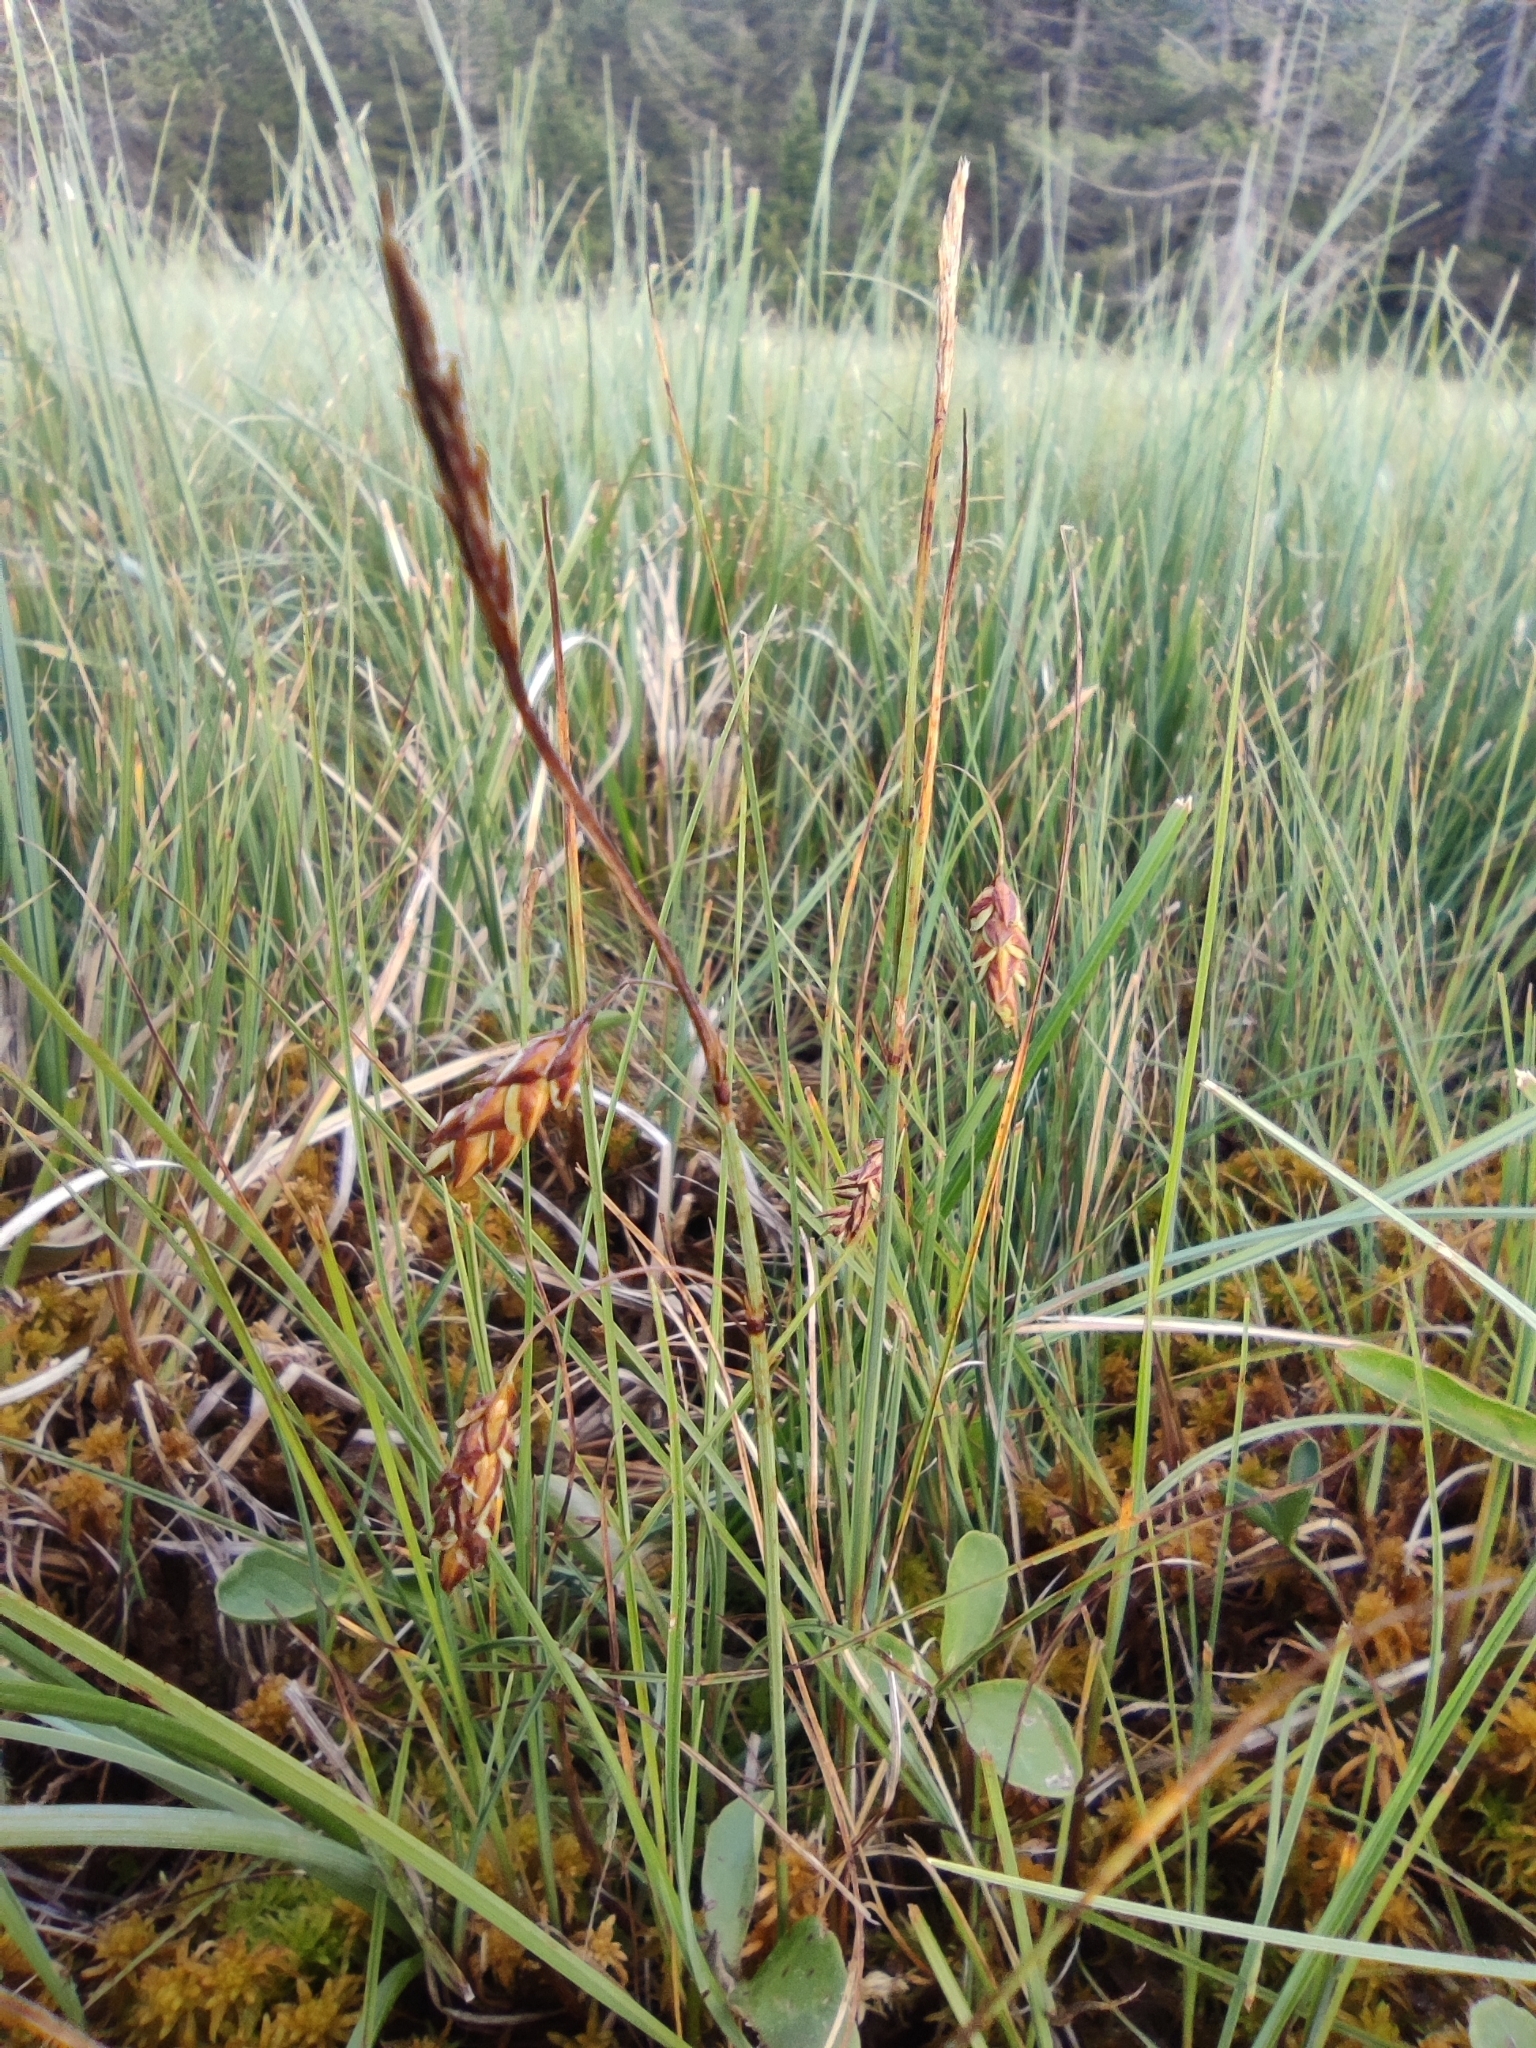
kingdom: Plantae
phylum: Tracheophyta
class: Liliopsida
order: Poales
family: Cyperaceae
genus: Carex
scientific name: Carex limosa
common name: Bog sedge
